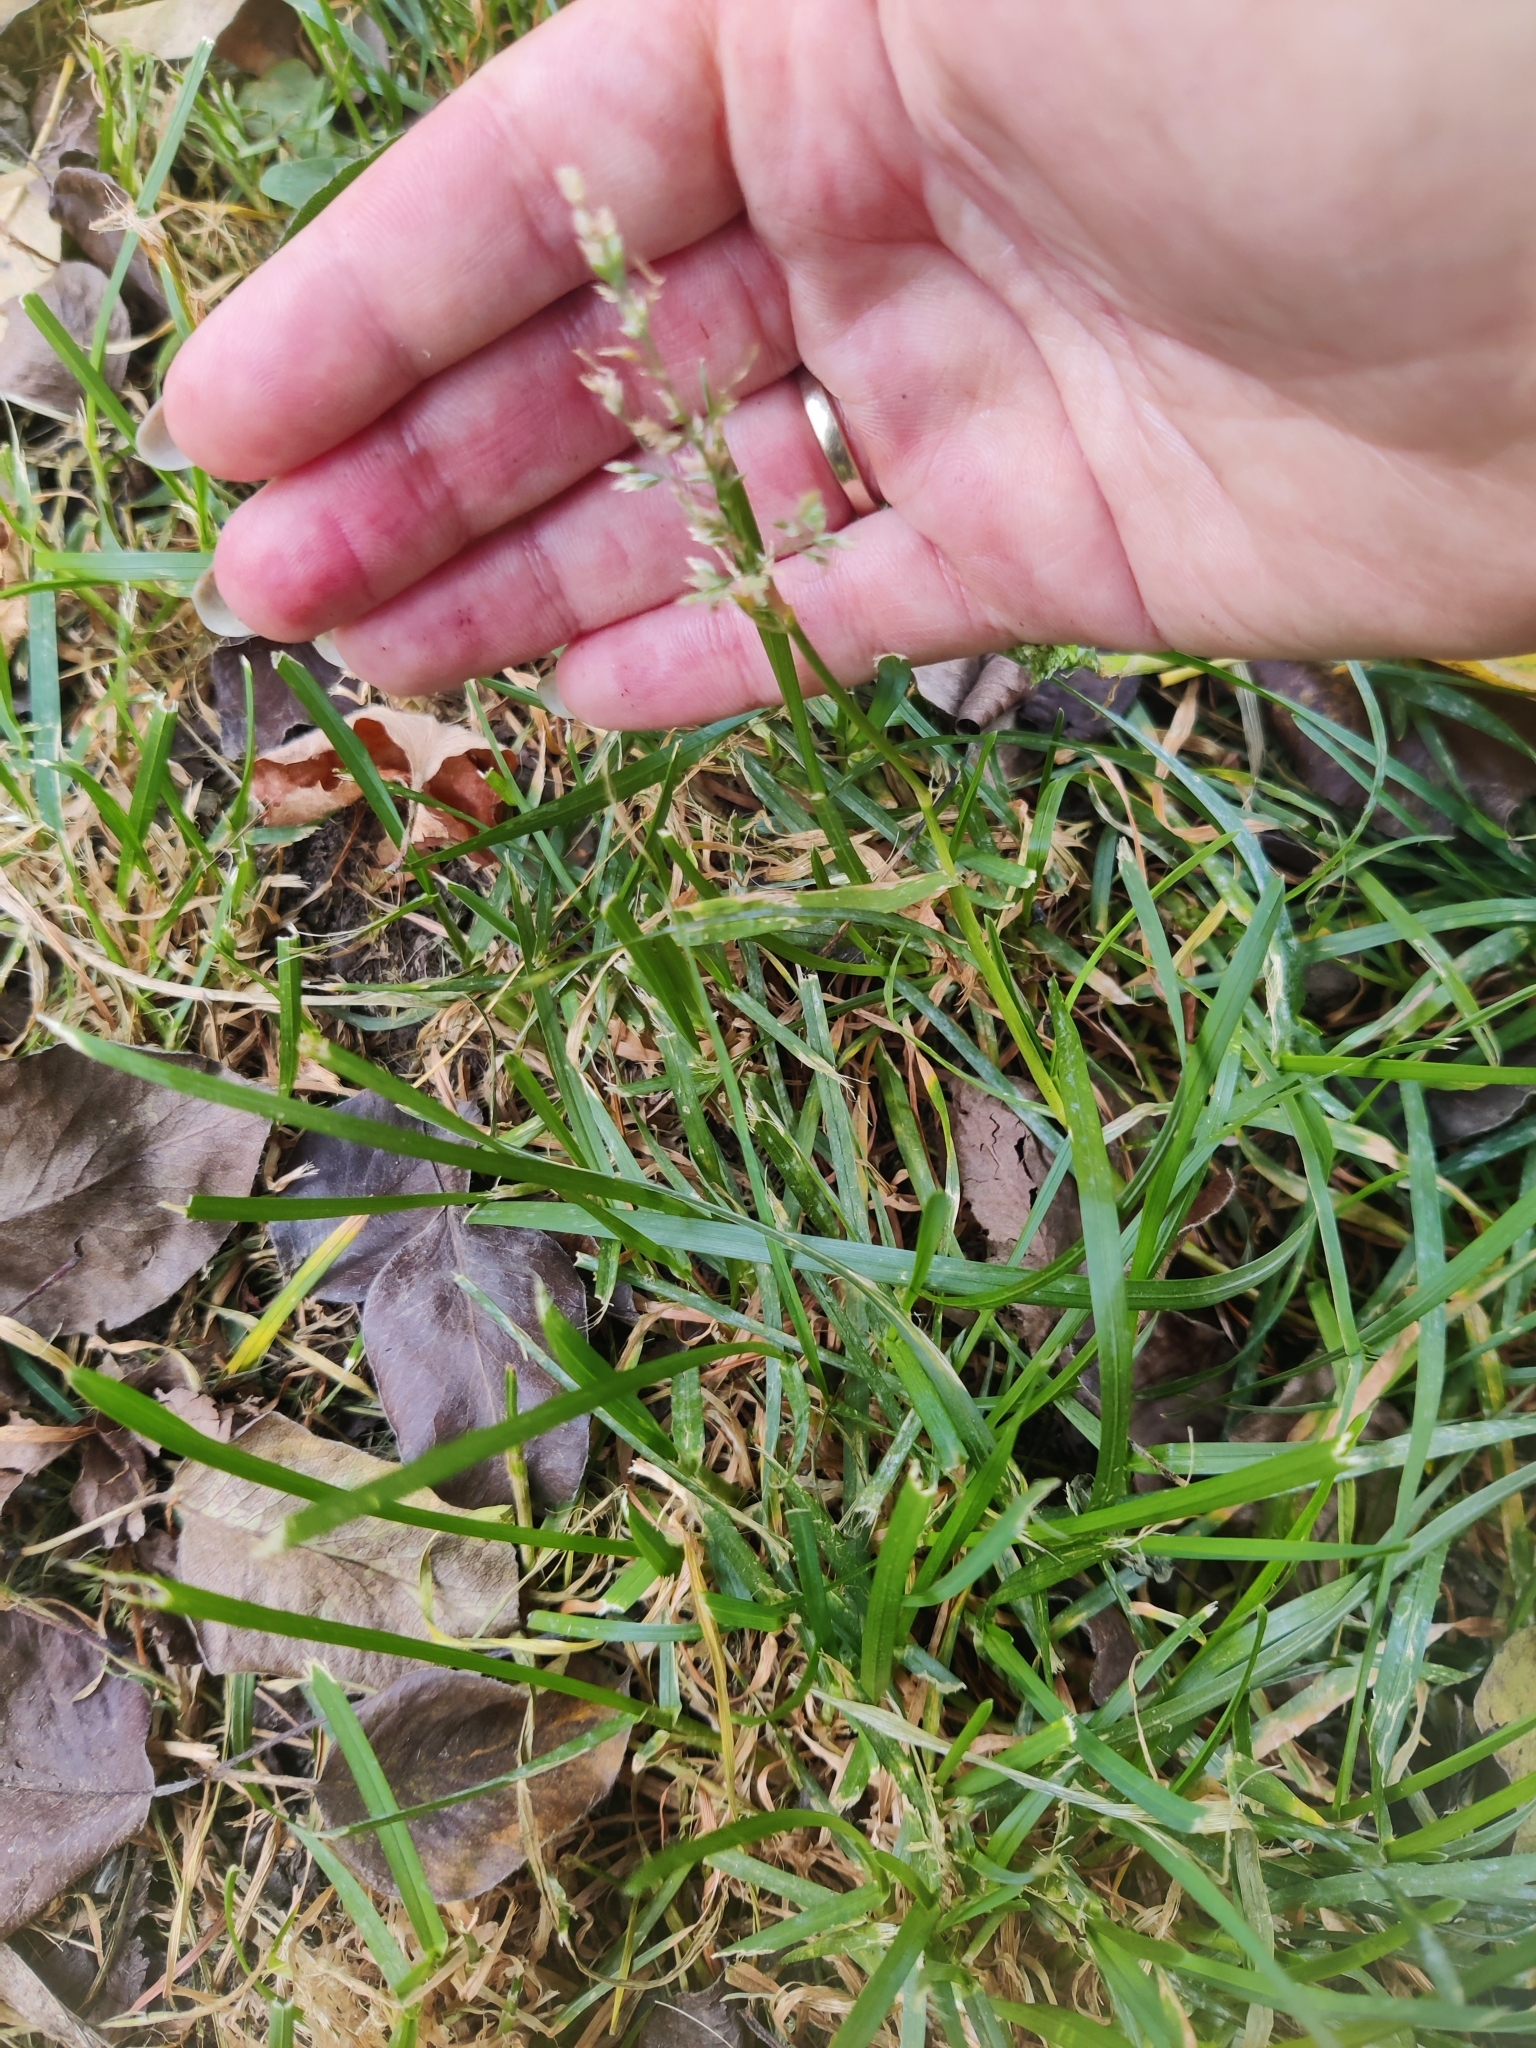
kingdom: Plantae
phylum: Tracheophyta
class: Liliopsida
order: Poales
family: Poaceae
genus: Poa
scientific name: Poa annua
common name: Annual bluegrass
